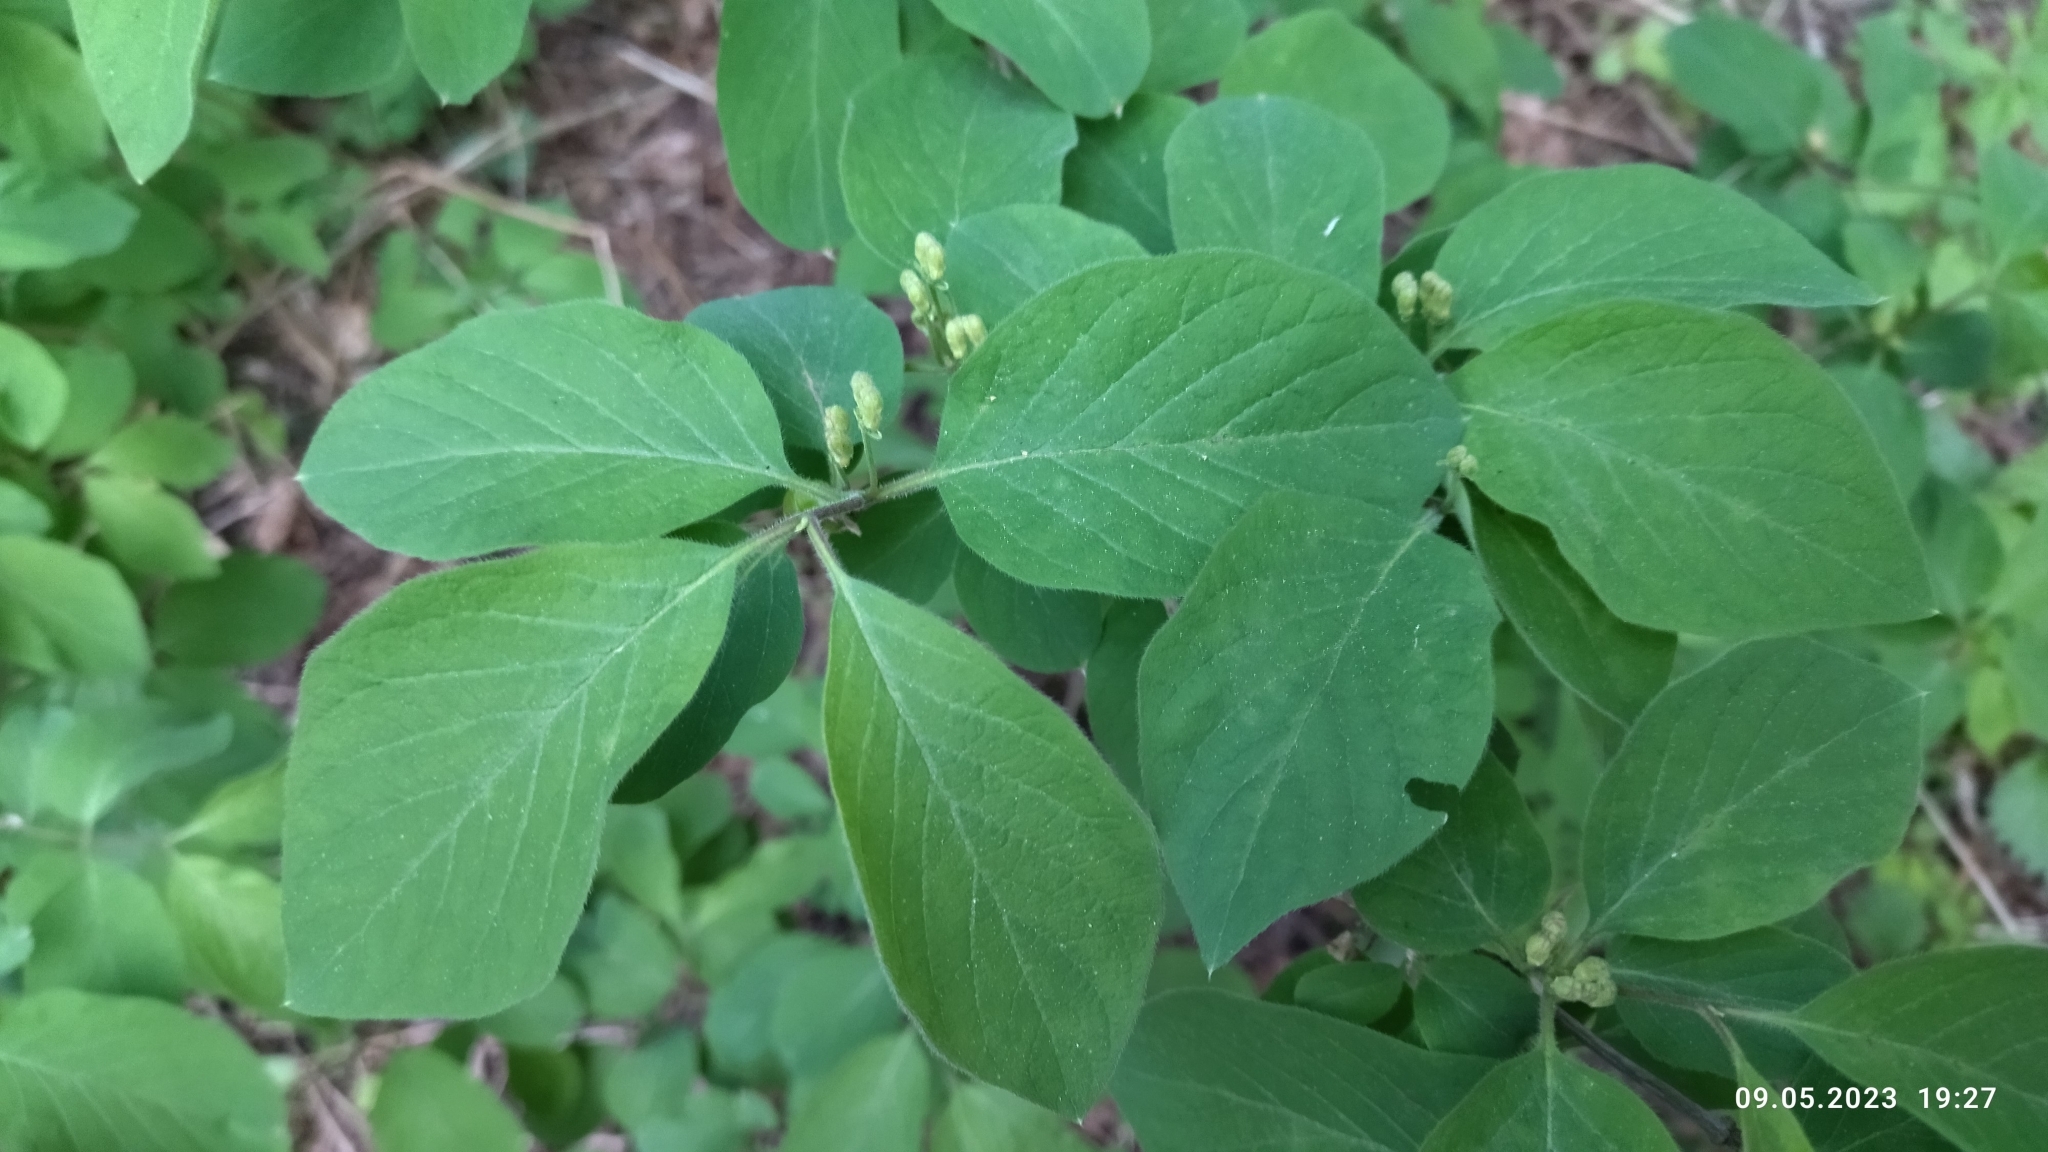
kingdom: Plantae
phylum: Tracheophyta
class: Magnoliopsida
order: Dipsacales
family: Caprifoliaceae
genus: Lonicera
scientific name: Lonicera xylosteum
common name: Fly honeysuckle
